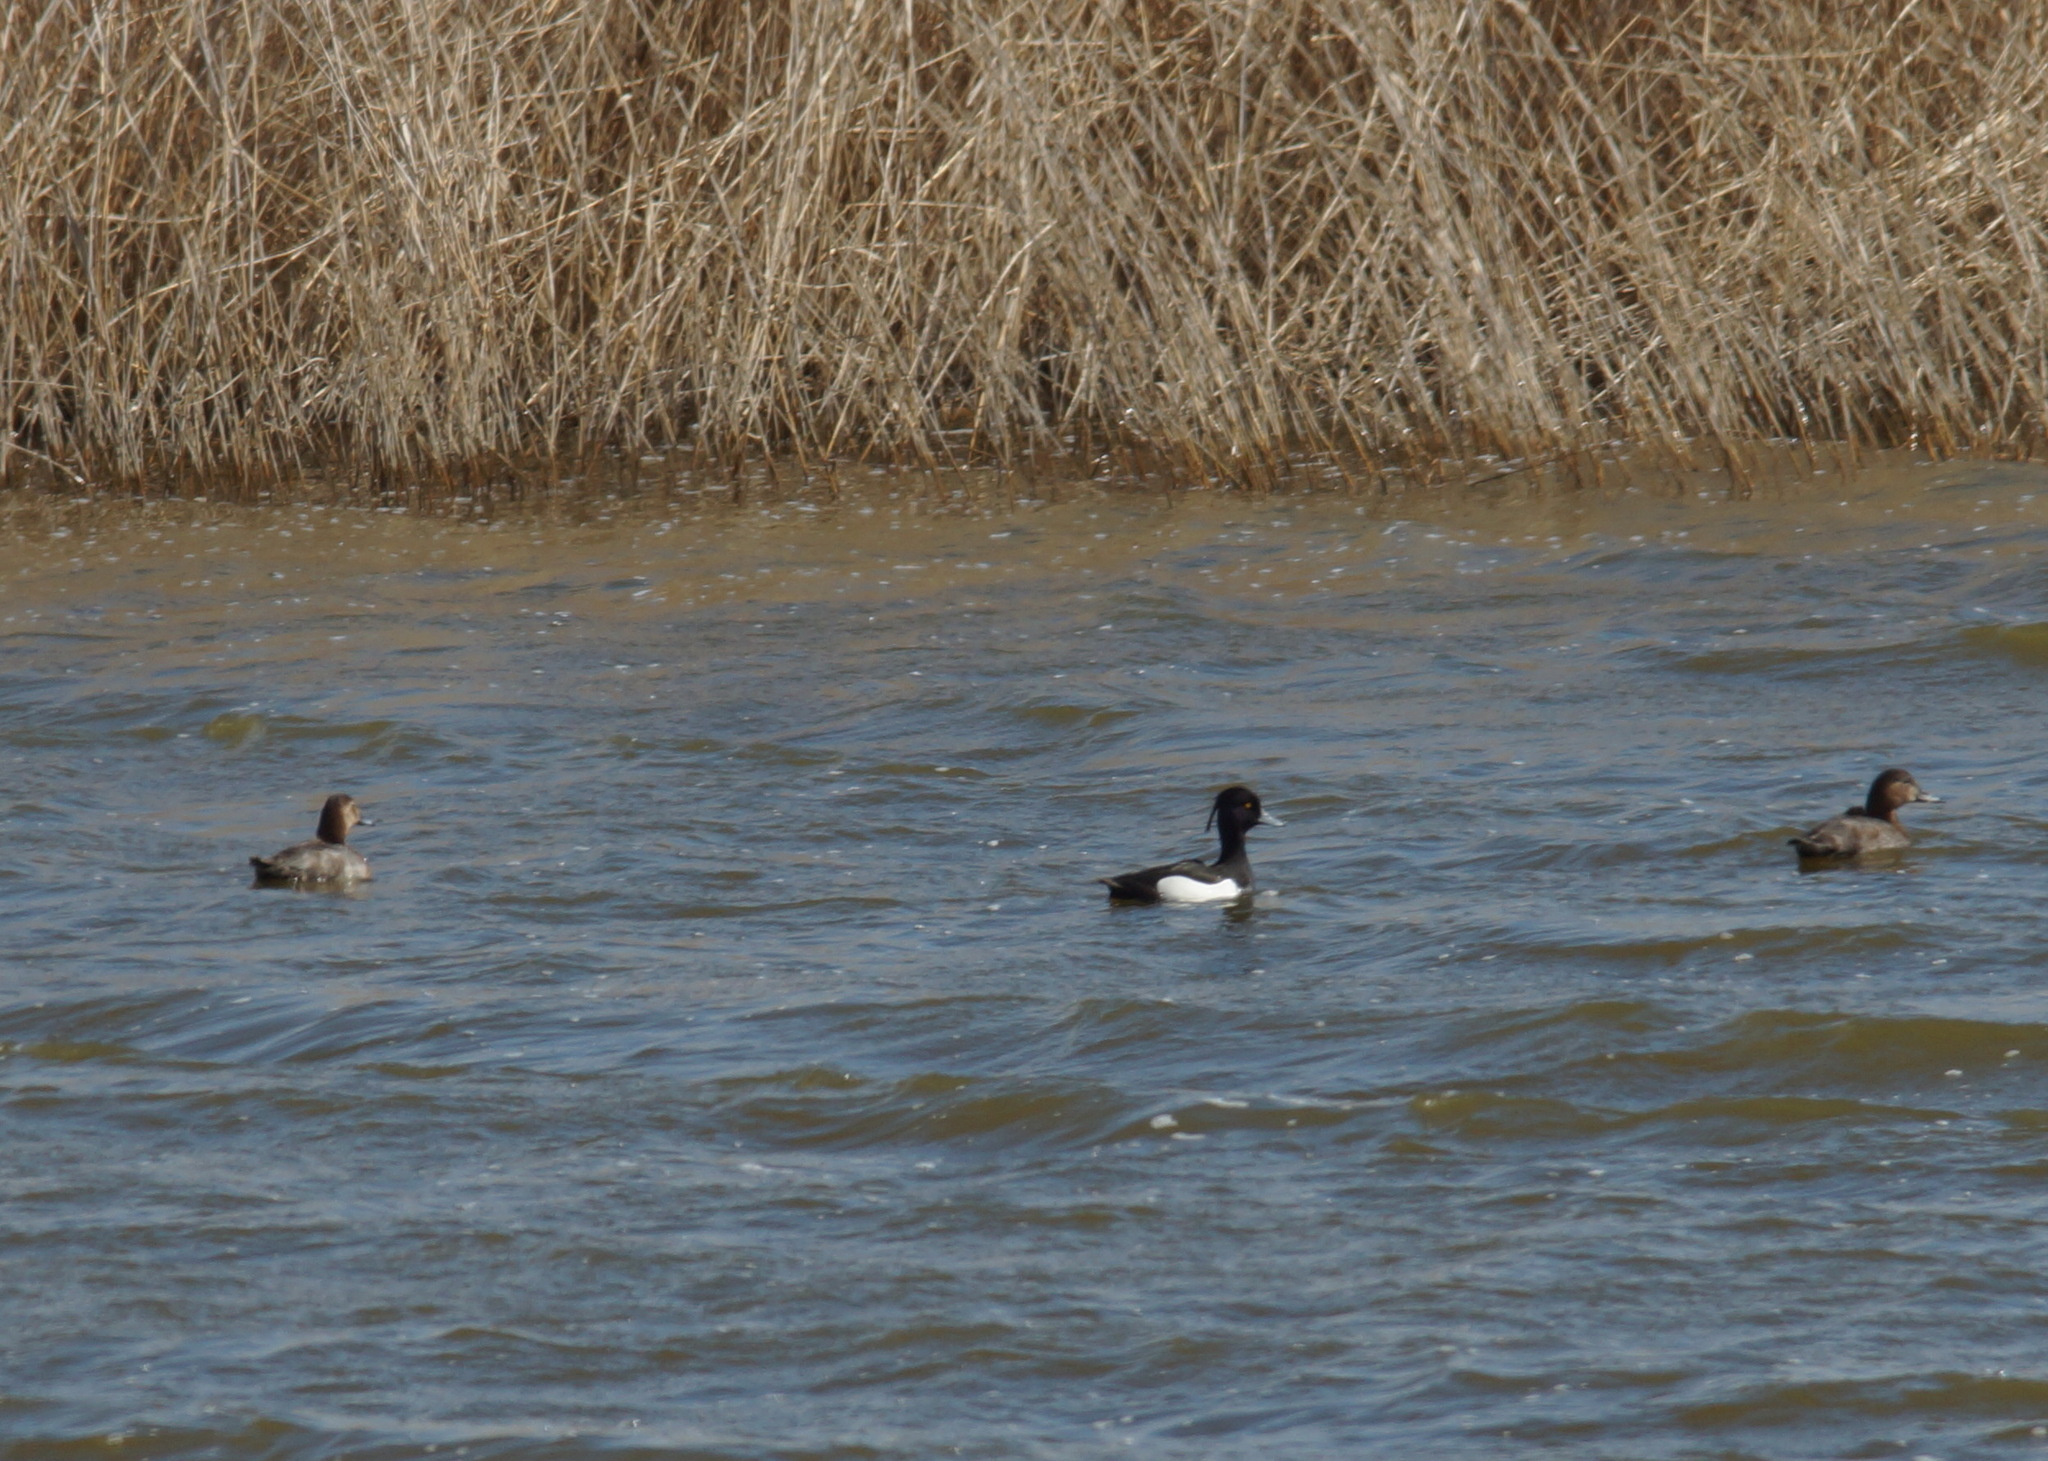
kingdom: Animalia
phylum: Chordata
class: Aves
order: Anseriformes
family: Anatidae
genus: Aythya
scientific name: Aythya ferina
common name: Common pochard
